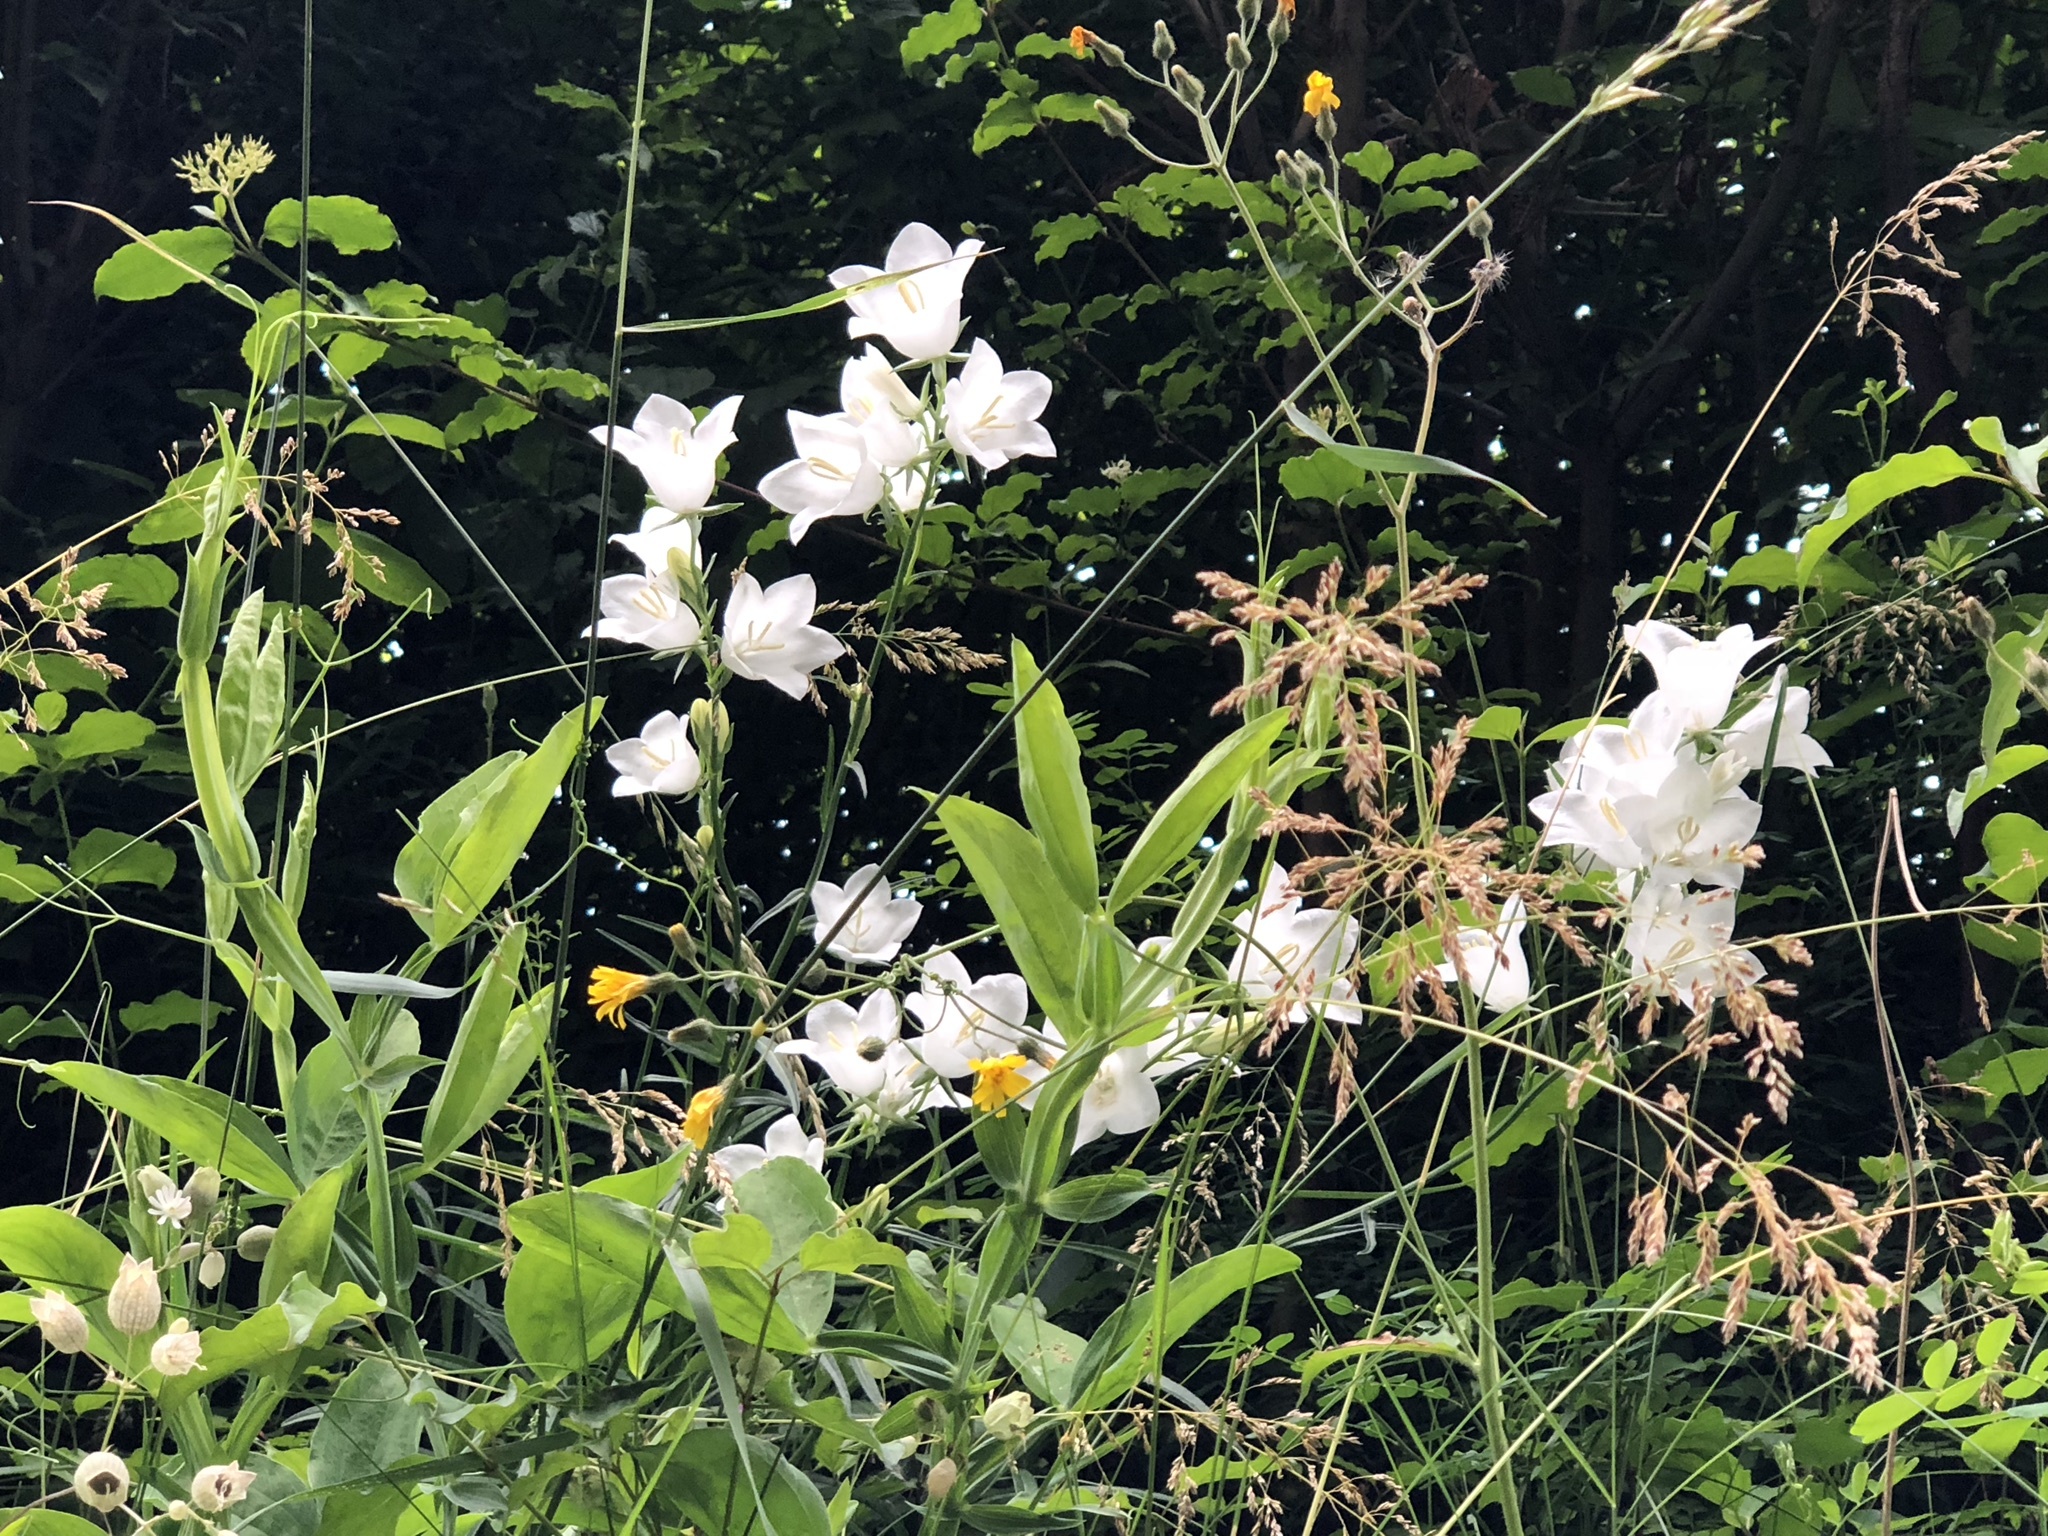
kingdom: Plantae
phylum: Tracheophyta
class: Magnoliopsida
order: Asterales
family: Campanulaceae
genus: Campanula
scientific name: Campanula persicifolia
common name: Peach-leaved bellflower
